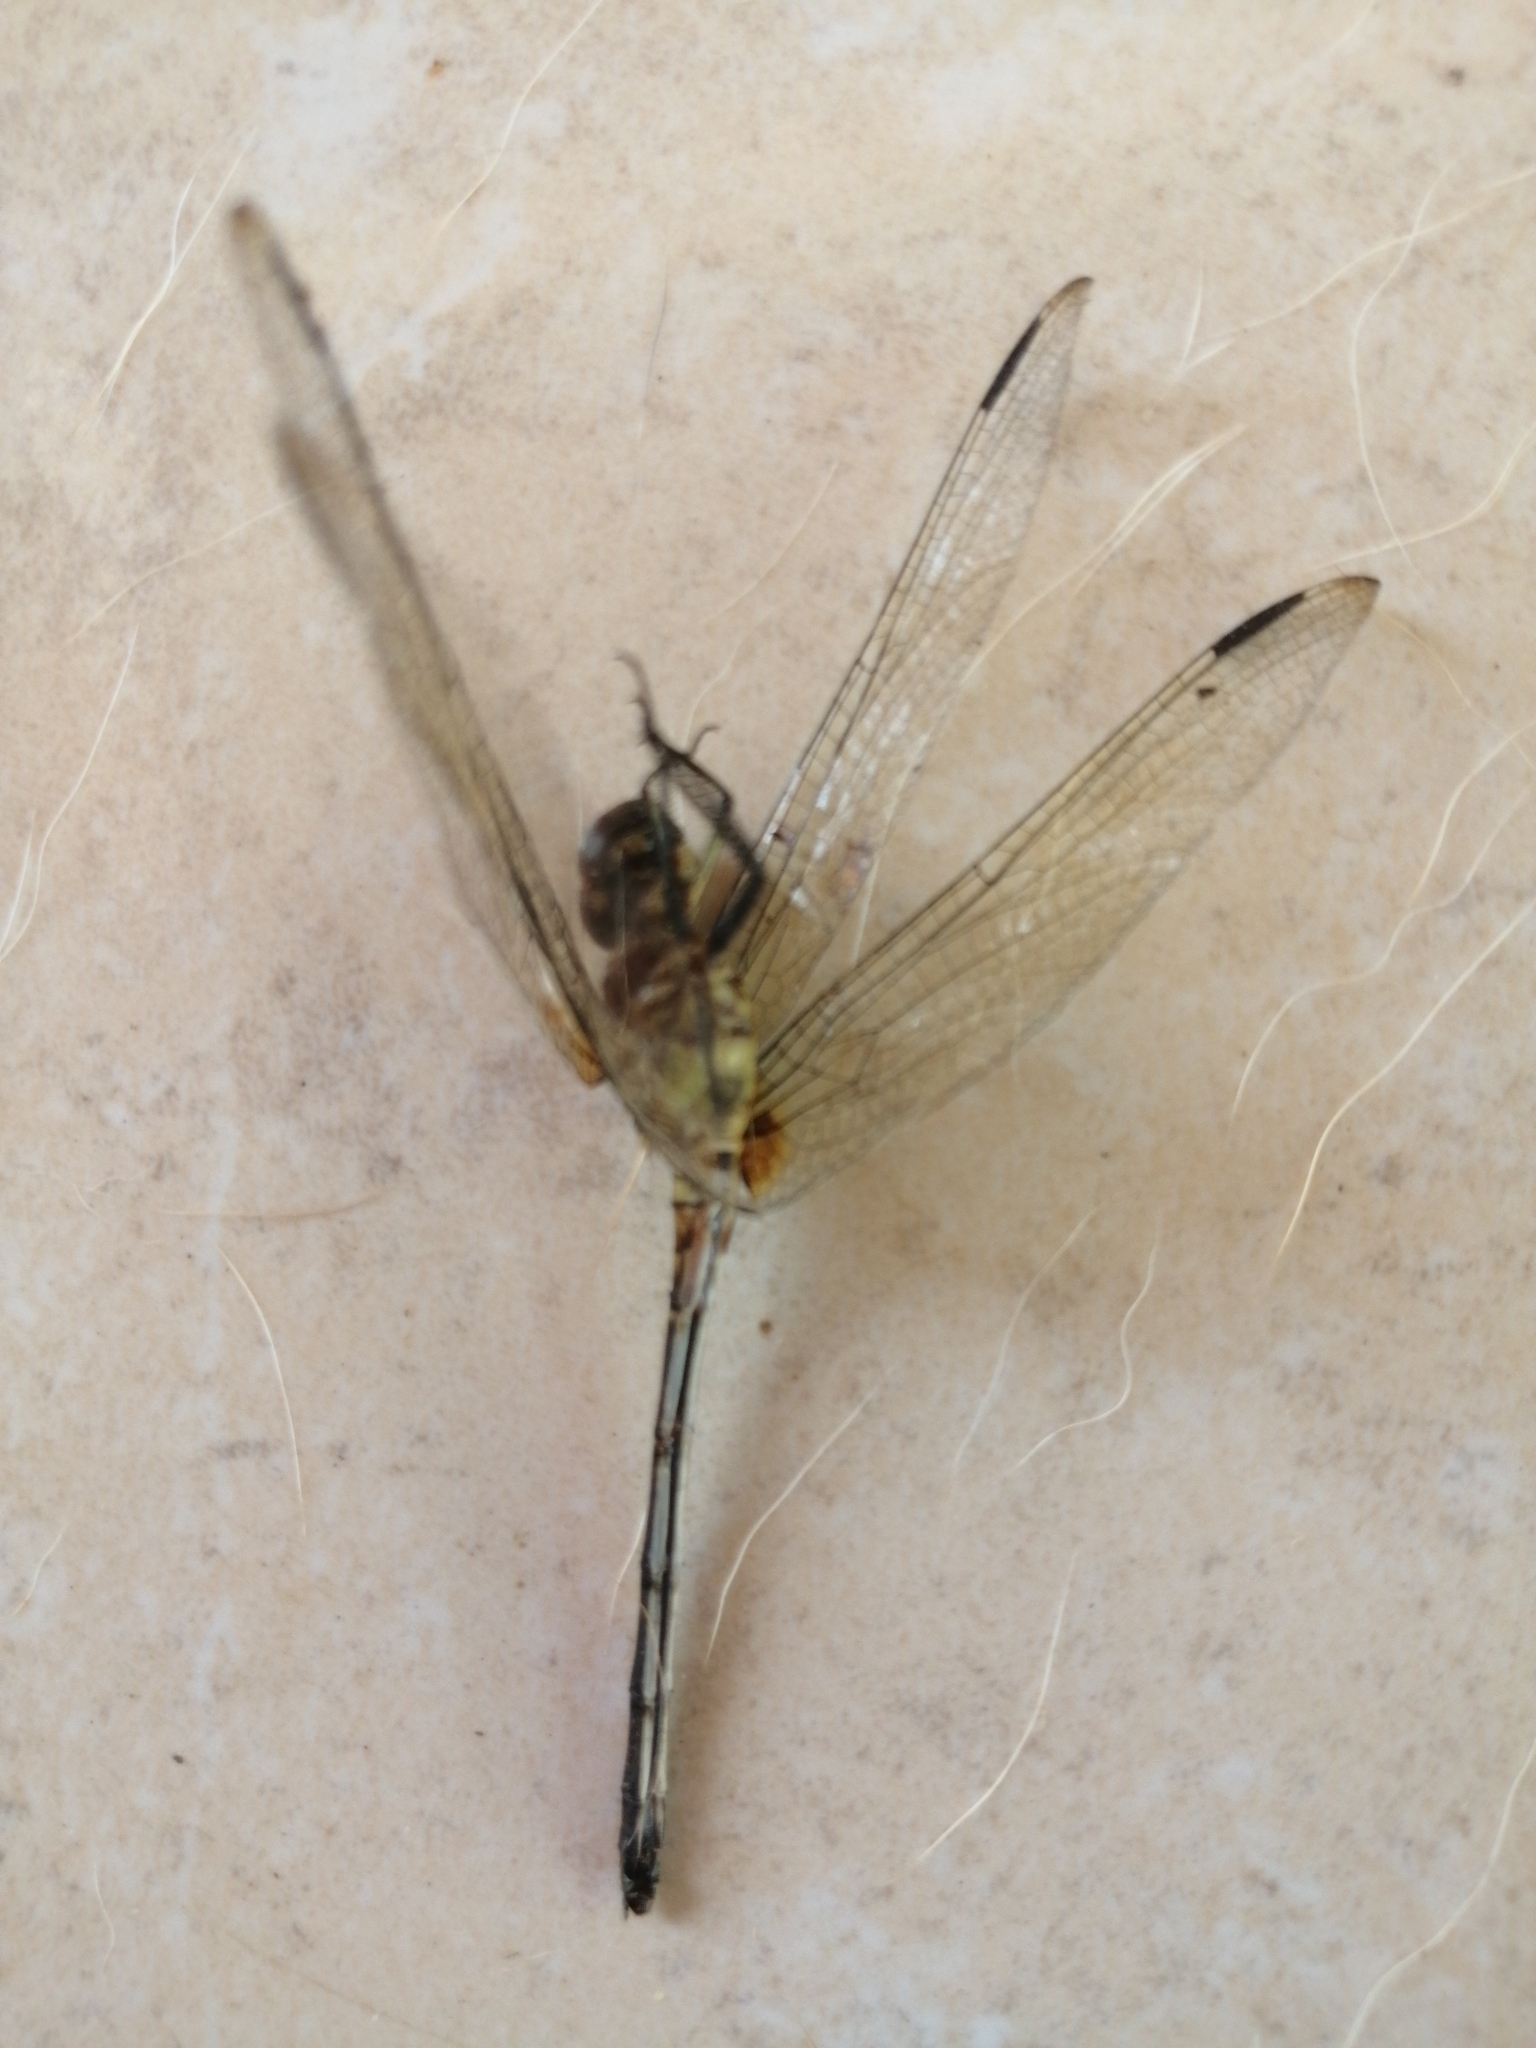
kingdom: Animalia
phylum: Arthropoda
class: Insecta
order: Odonata
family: Libellulidae
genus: Dythemis
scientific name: Dythemis sterilis
